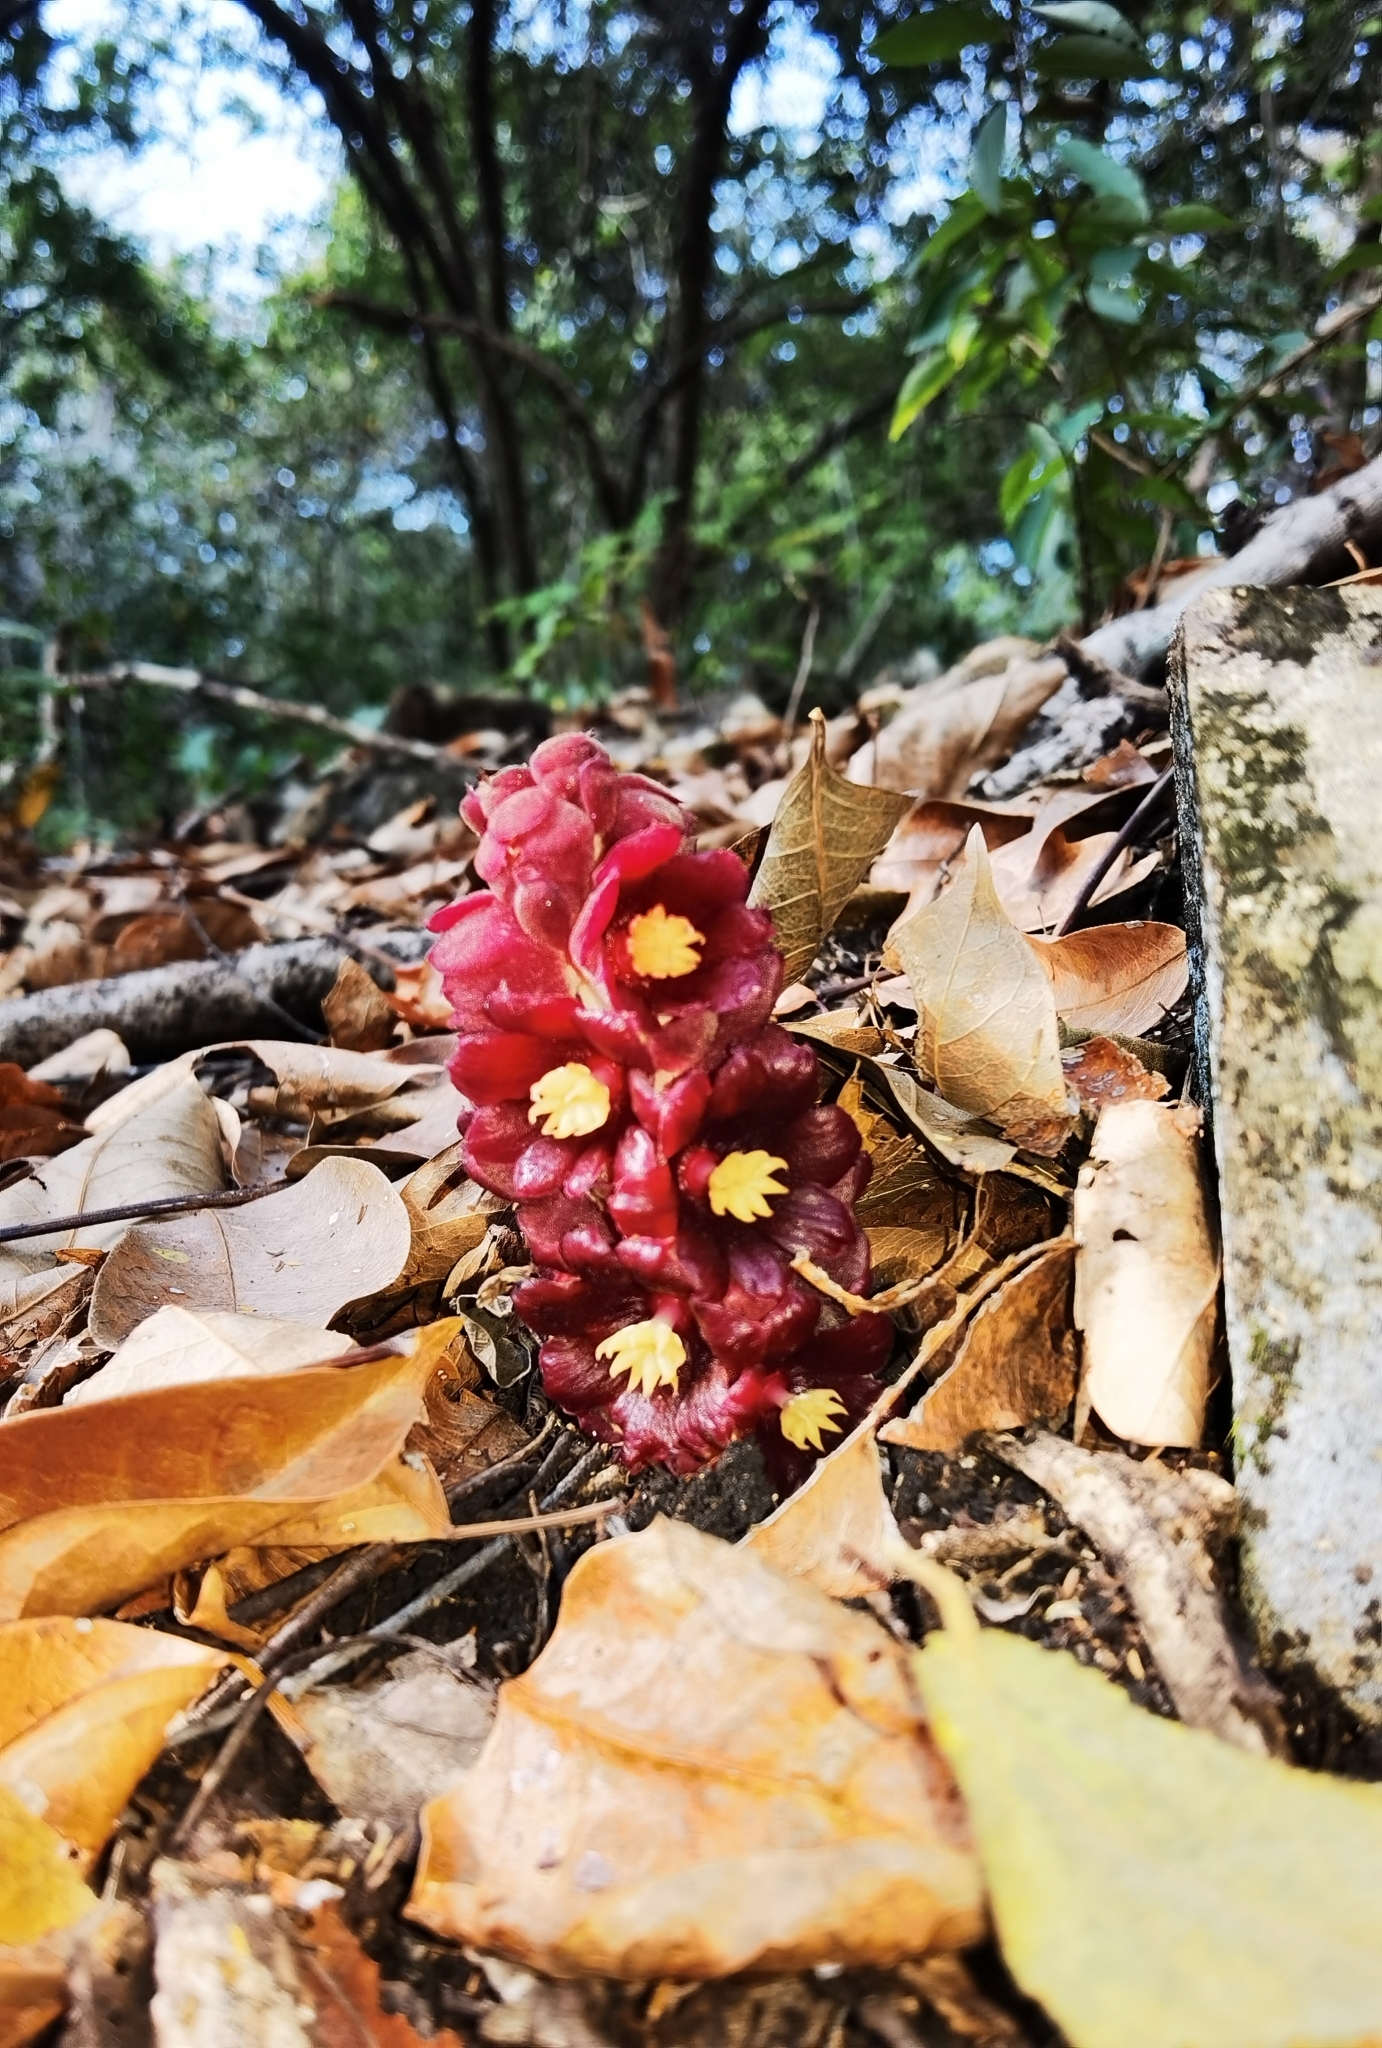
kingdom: Plantae
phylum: Tracheophyta
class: Magnoliopsida
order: Malvales
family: Cytinaceae
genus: Bdallophyton
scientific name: Bdallophyton americanum
